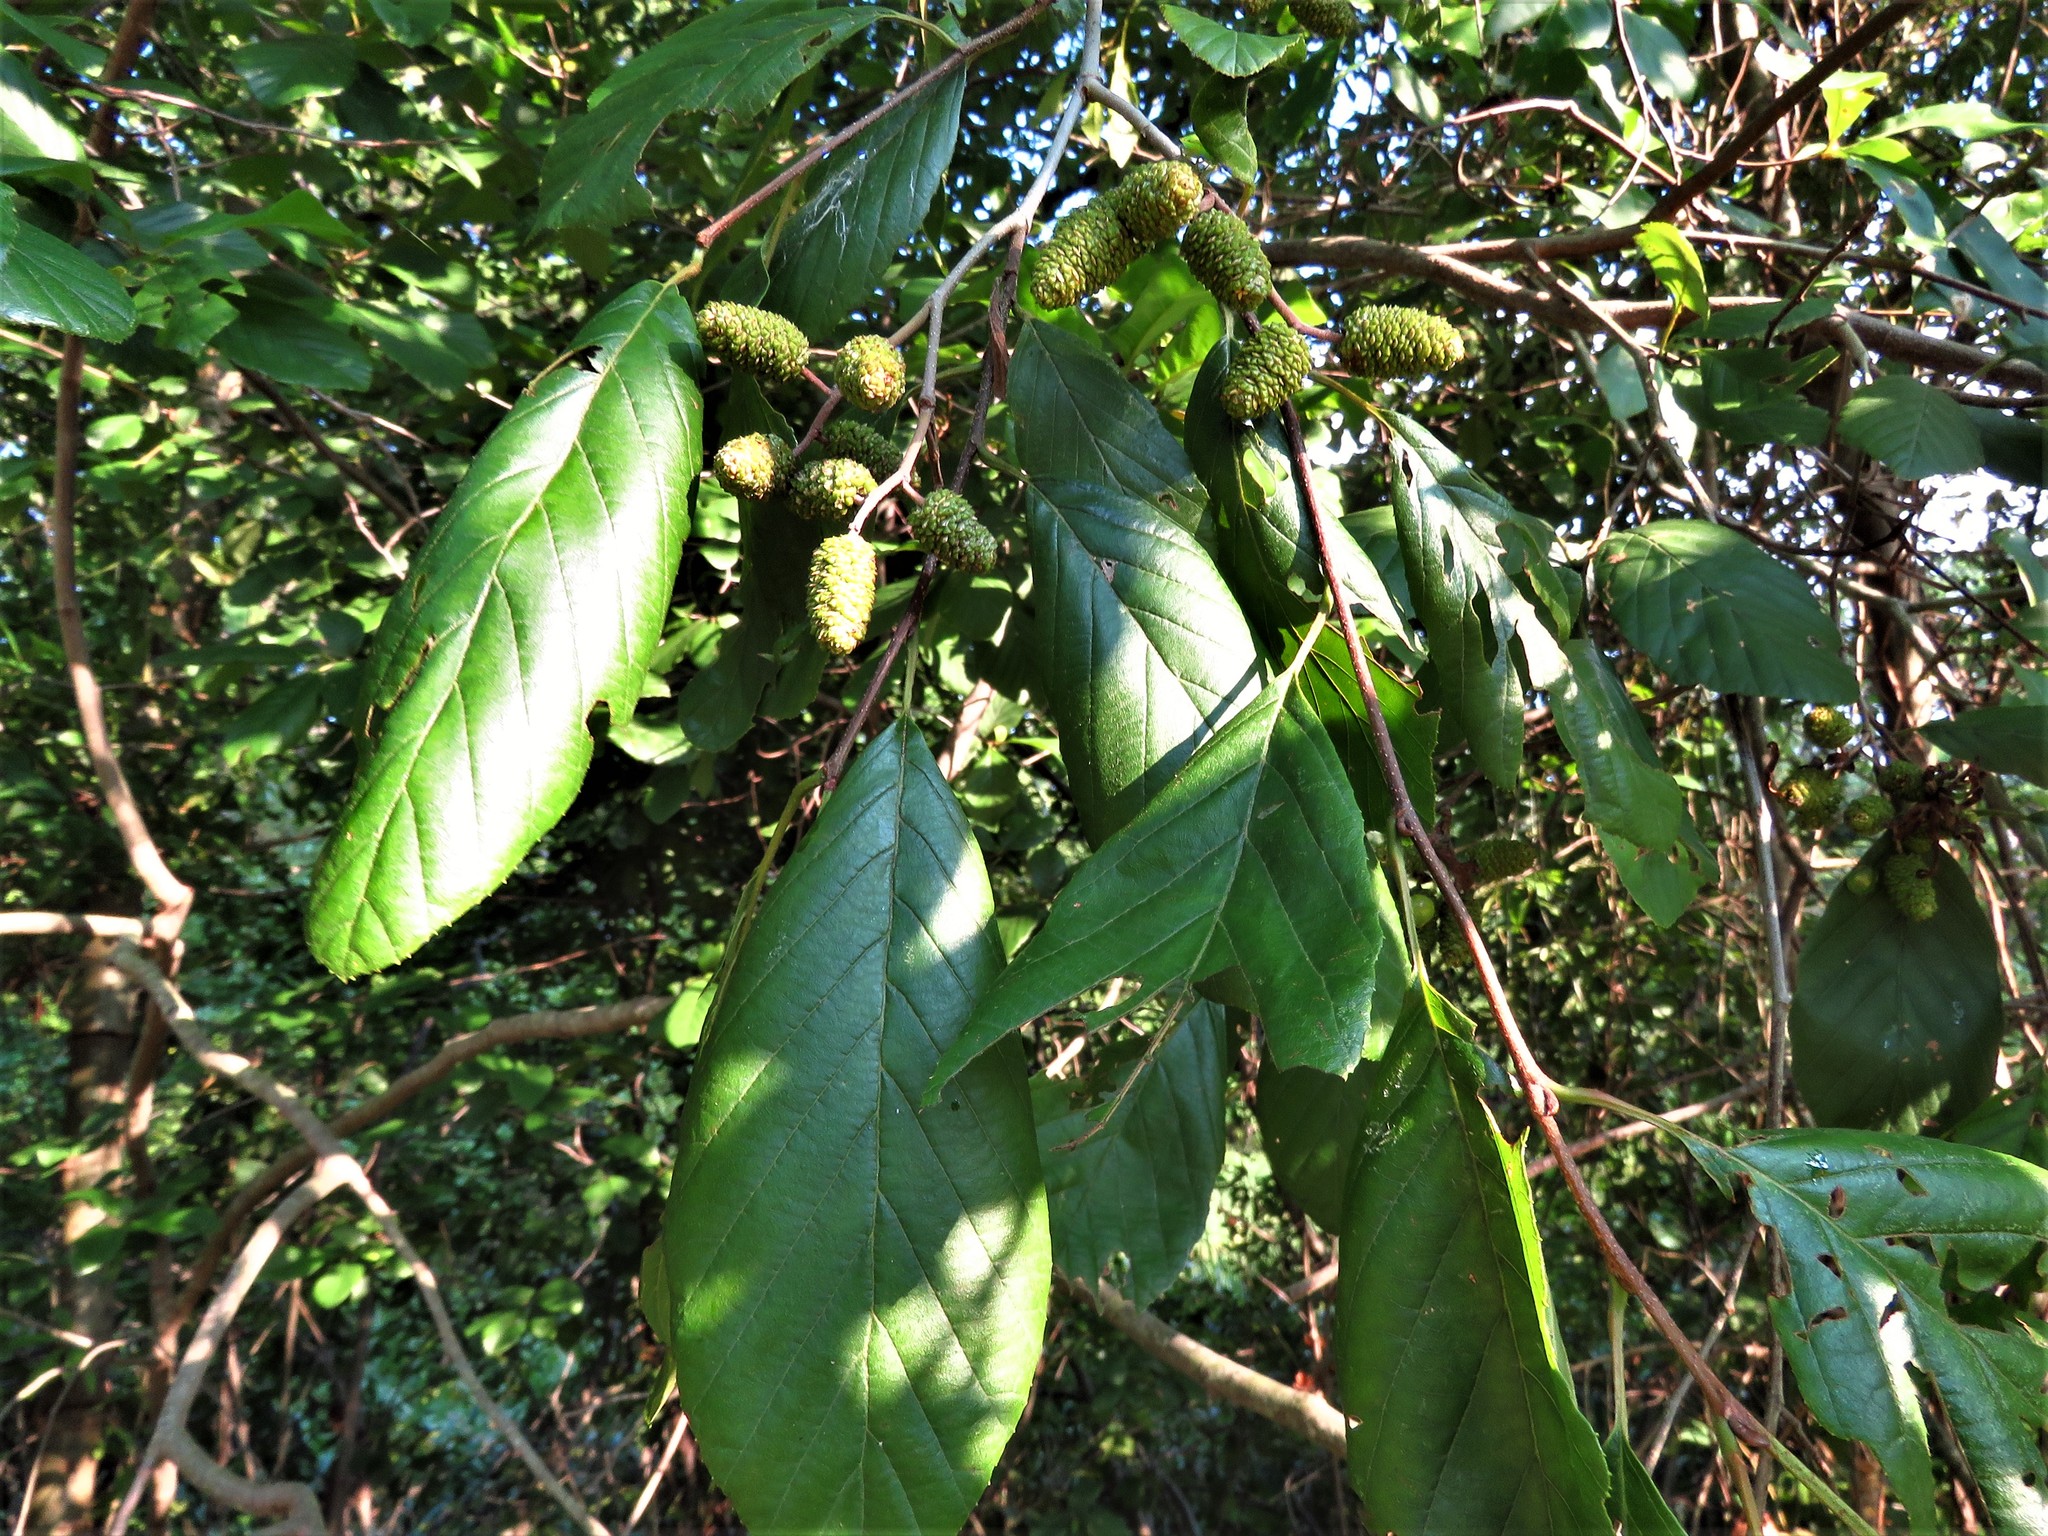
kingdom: Plantae
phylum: Tracheophyta
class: Magnoliopsida
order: Fagales
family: Betulaceae
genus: Alnus
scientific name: Alnus serrulata
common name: Hazel alder
